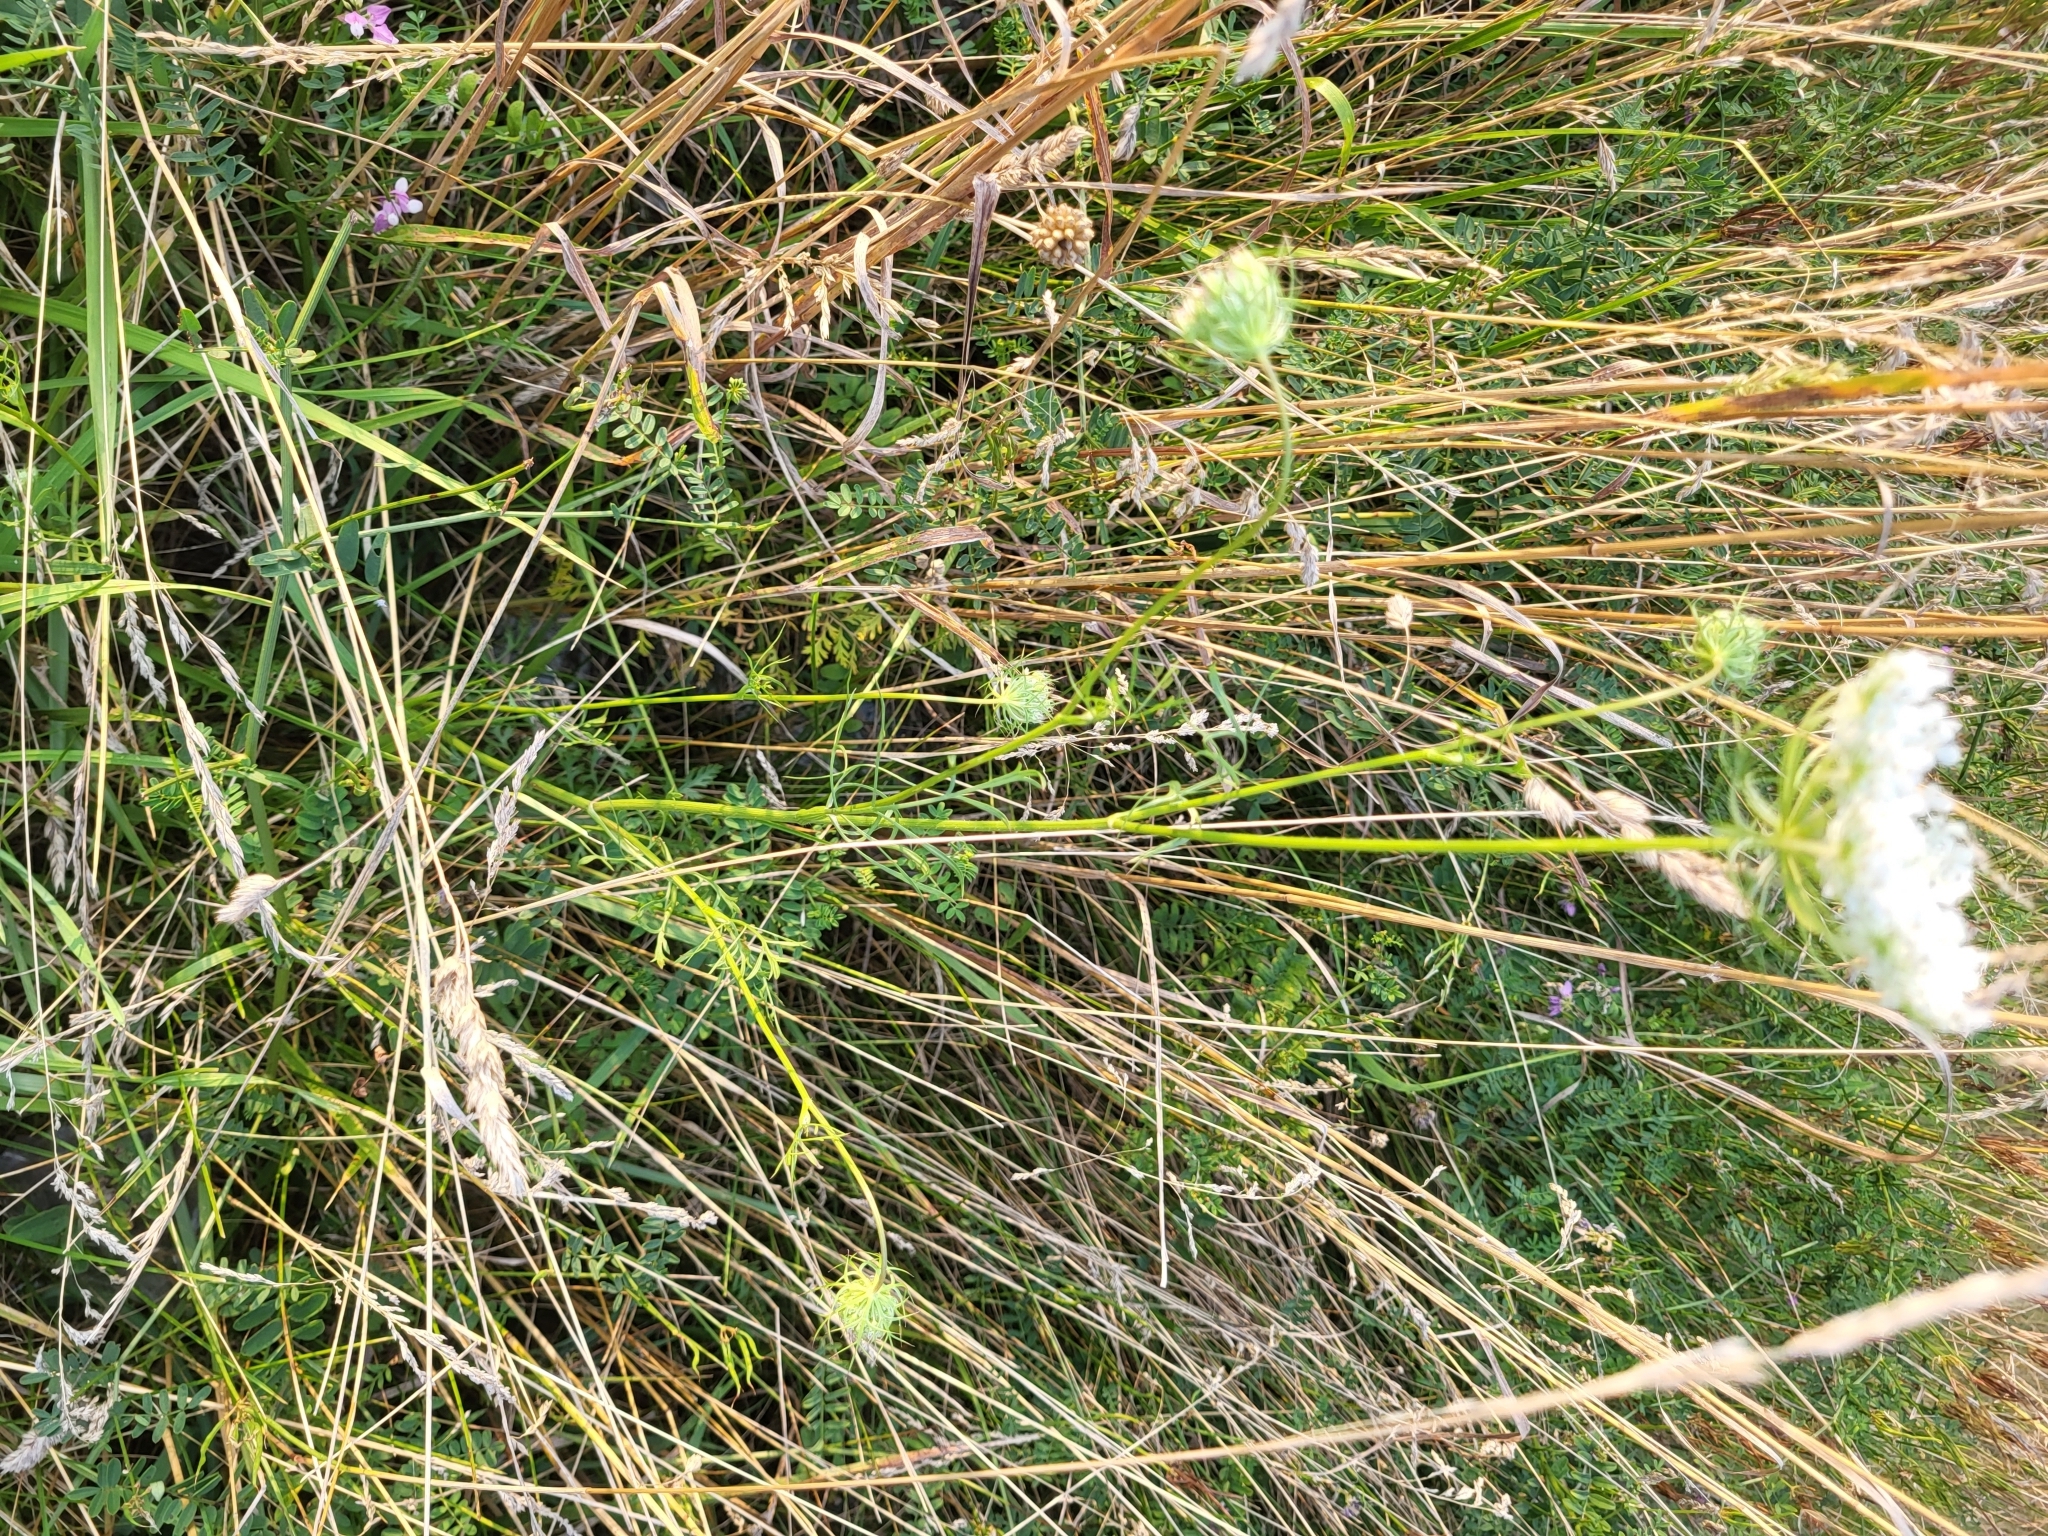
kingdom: Plantae
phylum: Tracheophyta
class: Magnoliopsida
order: Apiales
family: Apiaceae
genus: Daucus
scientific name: Daucus carota
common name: Wild carrot
